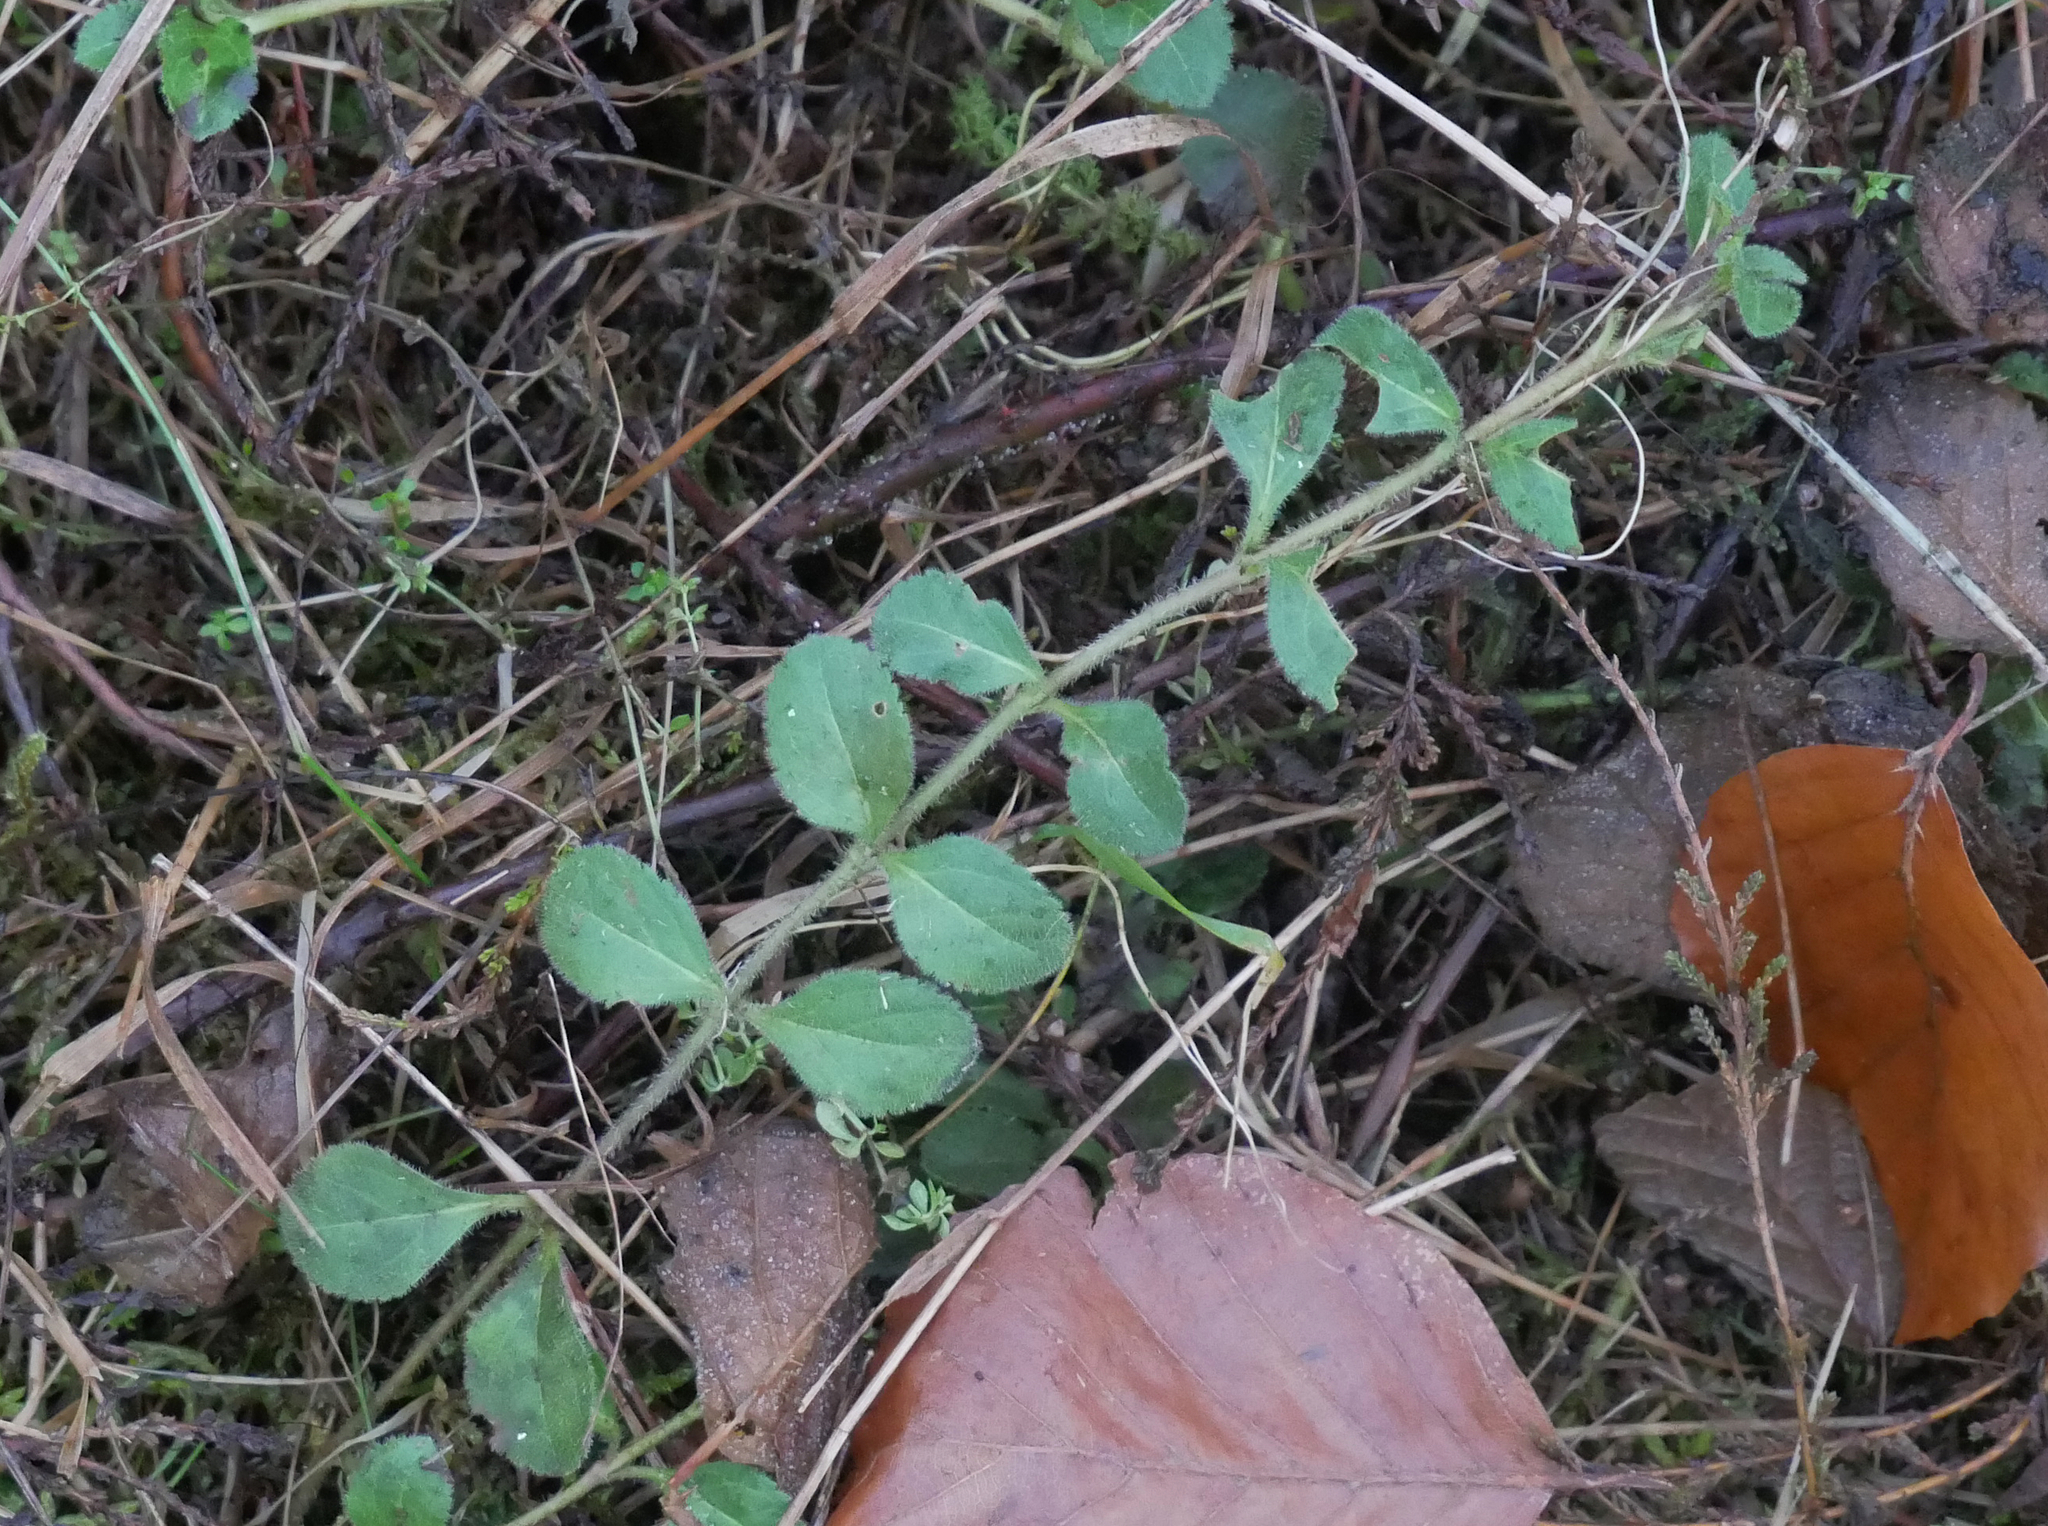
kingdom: Plantae
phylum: Tracheophyta
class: Magnoliopsida
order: Lamiales
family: Plantaginaceae
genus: Veronica
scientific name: Veronica officinalis
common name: Common speedwell
